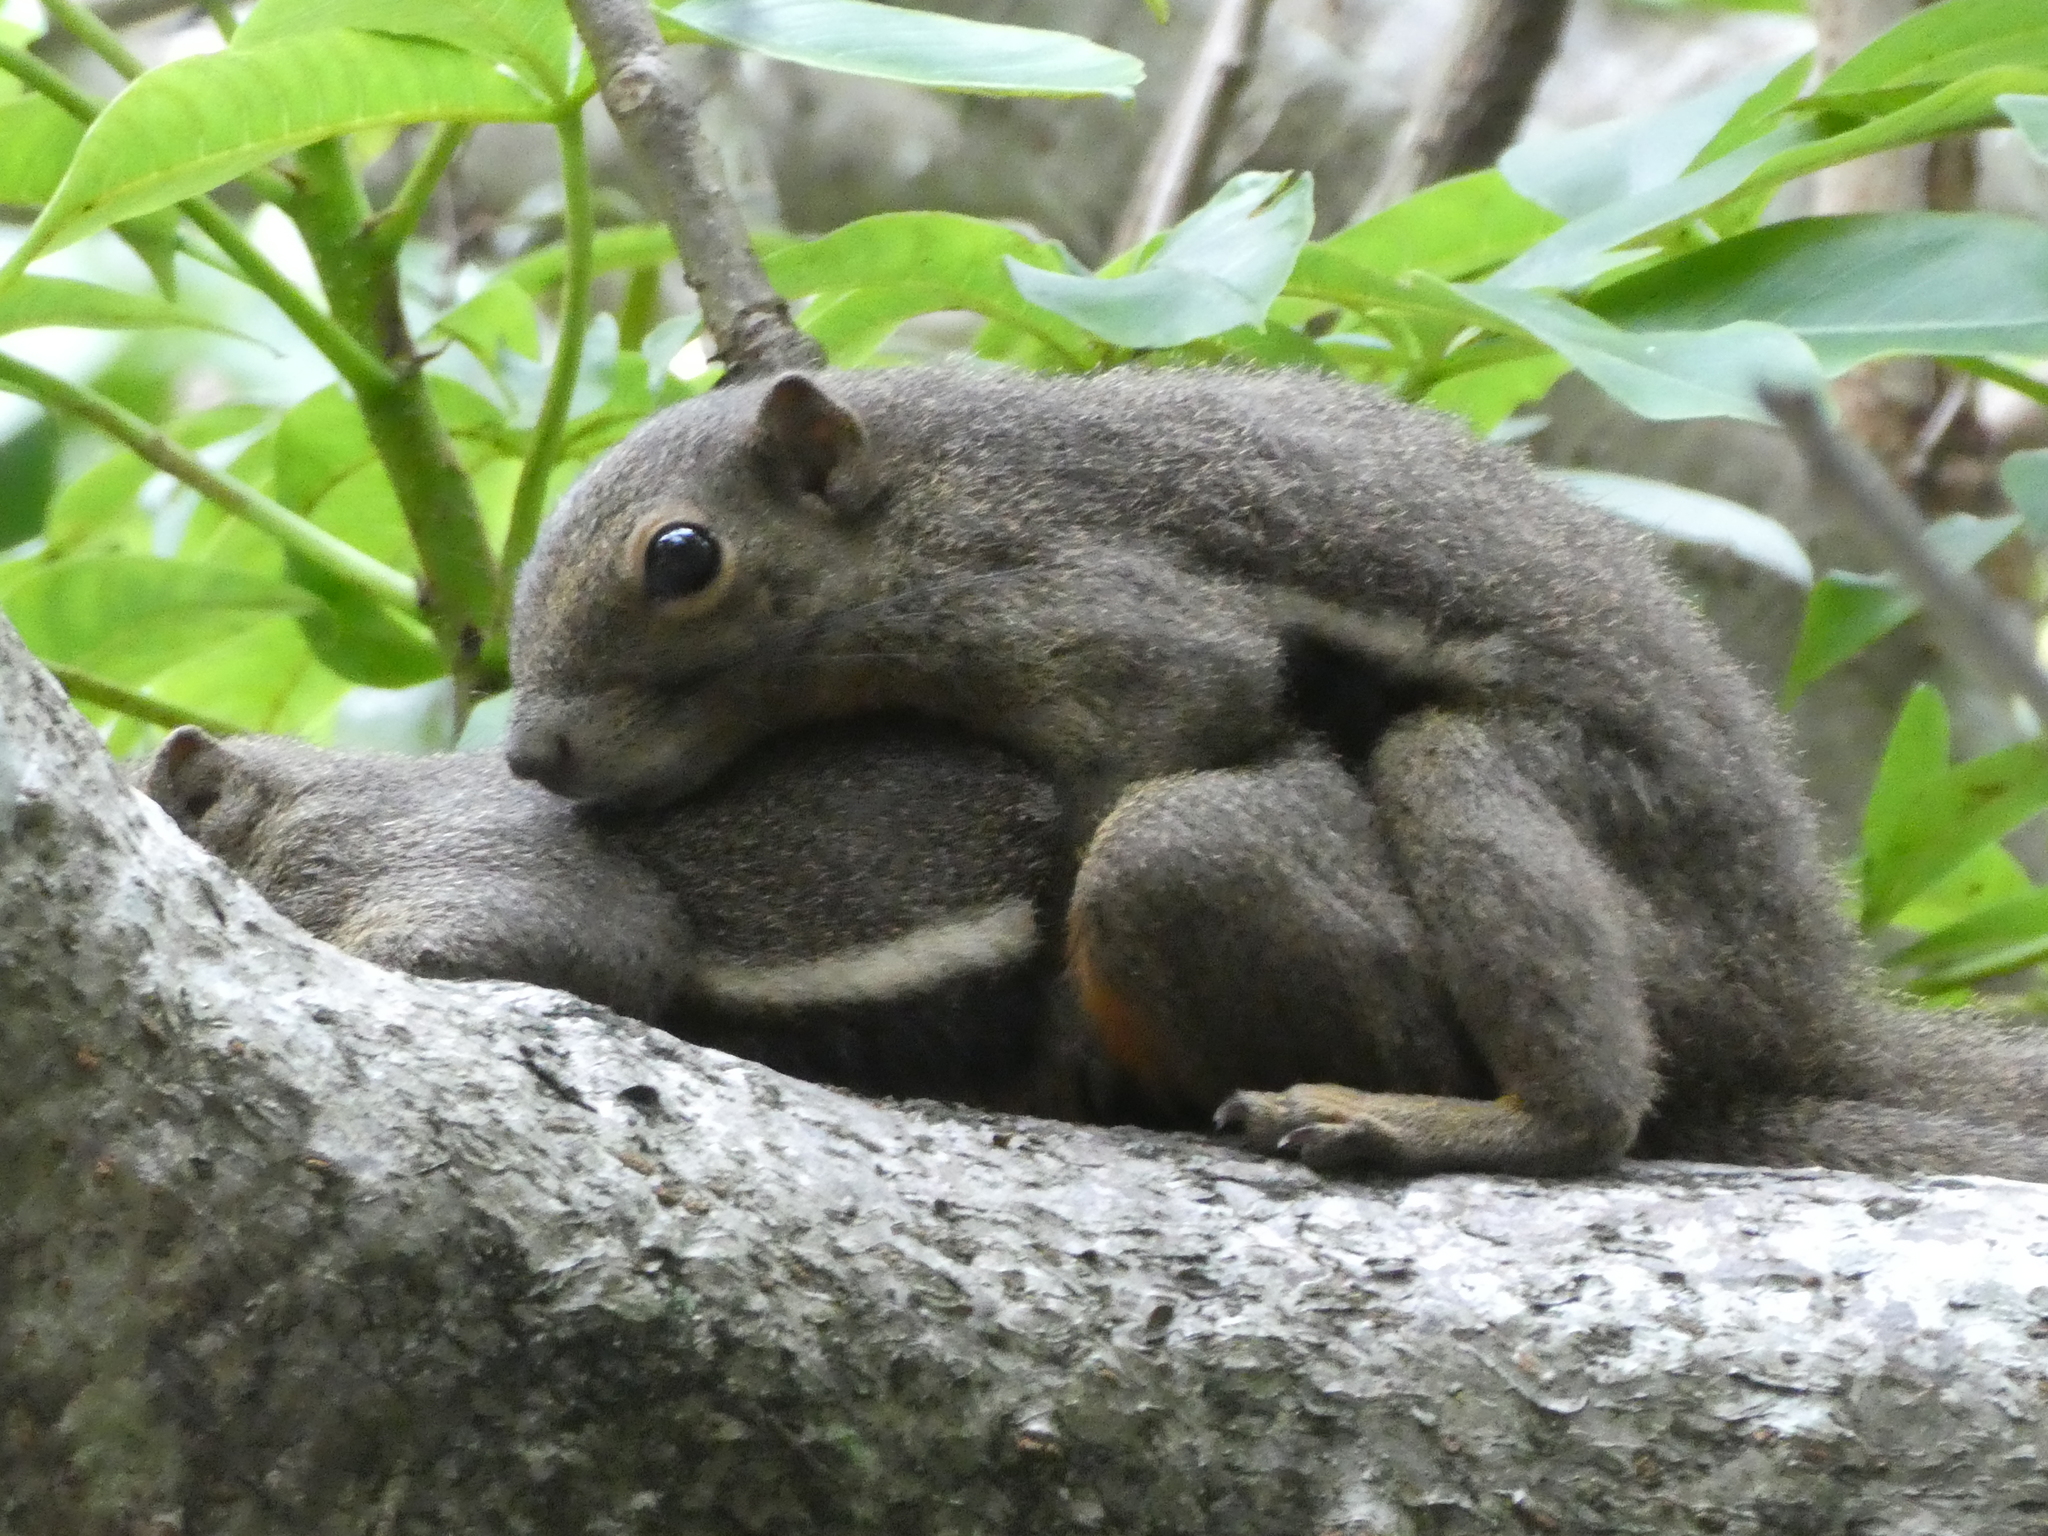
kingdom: Animalia
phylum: Chordata
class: Mammalia
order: Rodentia
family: Sciuridae
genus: Callosciurus
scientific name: Callosciurus notatus
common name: Plantain squirrel
